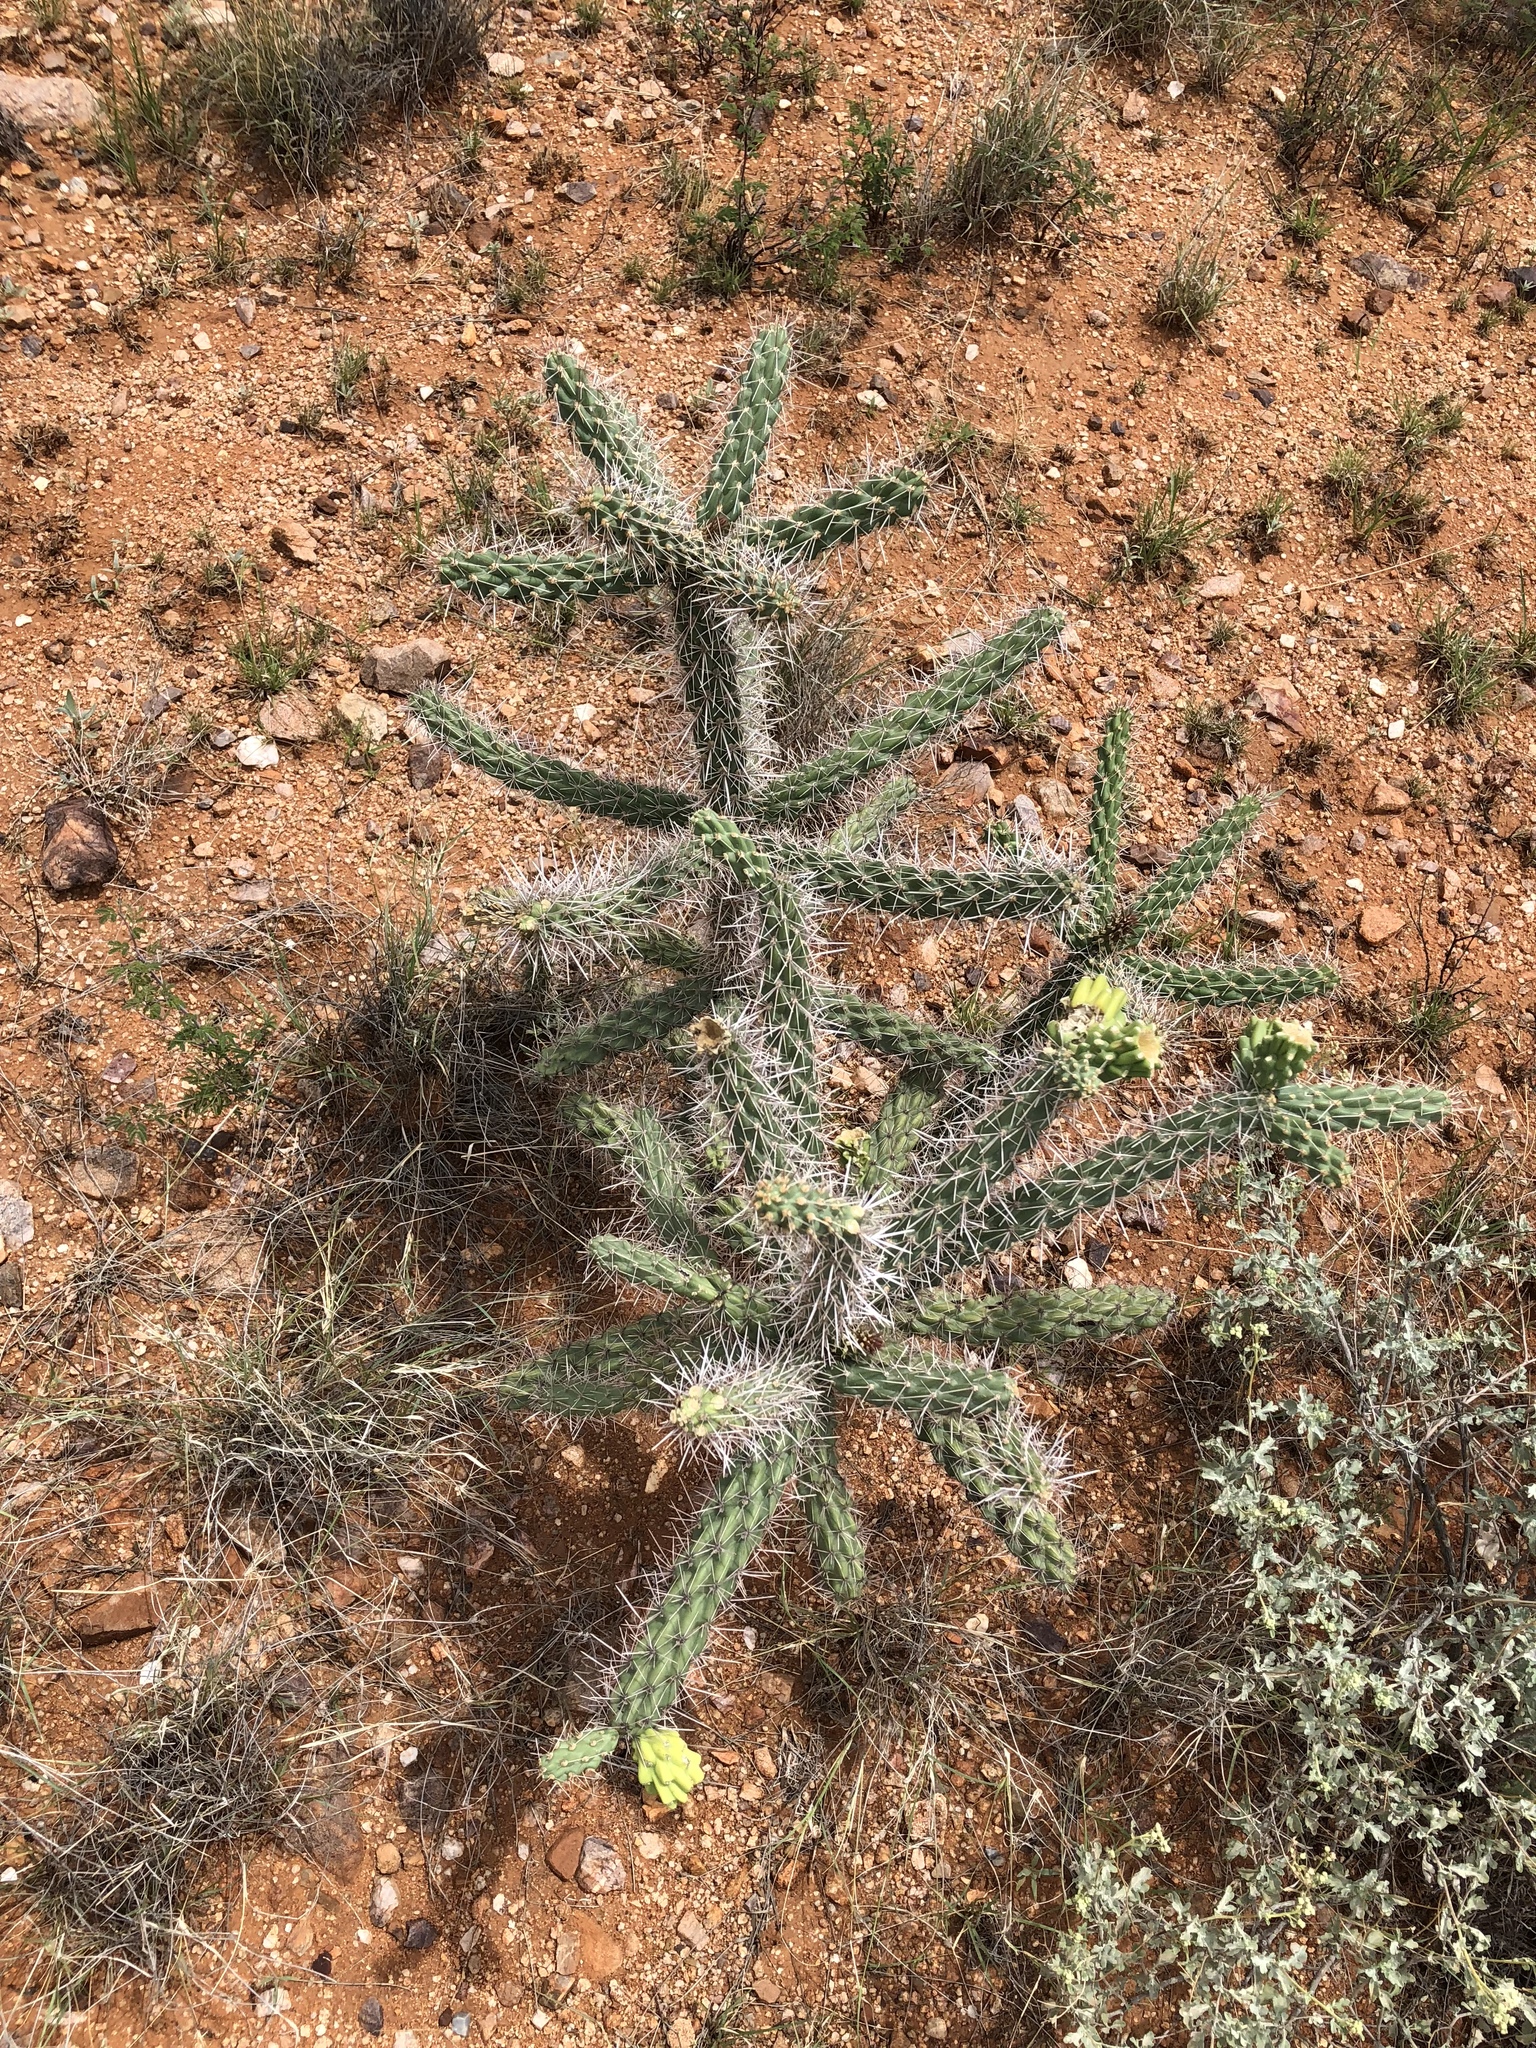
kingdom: Plantae
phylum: Tracheophyta
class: Magnoliopsida
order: Caryophyllales
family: Cactaceae
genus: Cylindropuntia
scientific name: Cylindropuntia imbricata
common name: Candelabrum cactus
